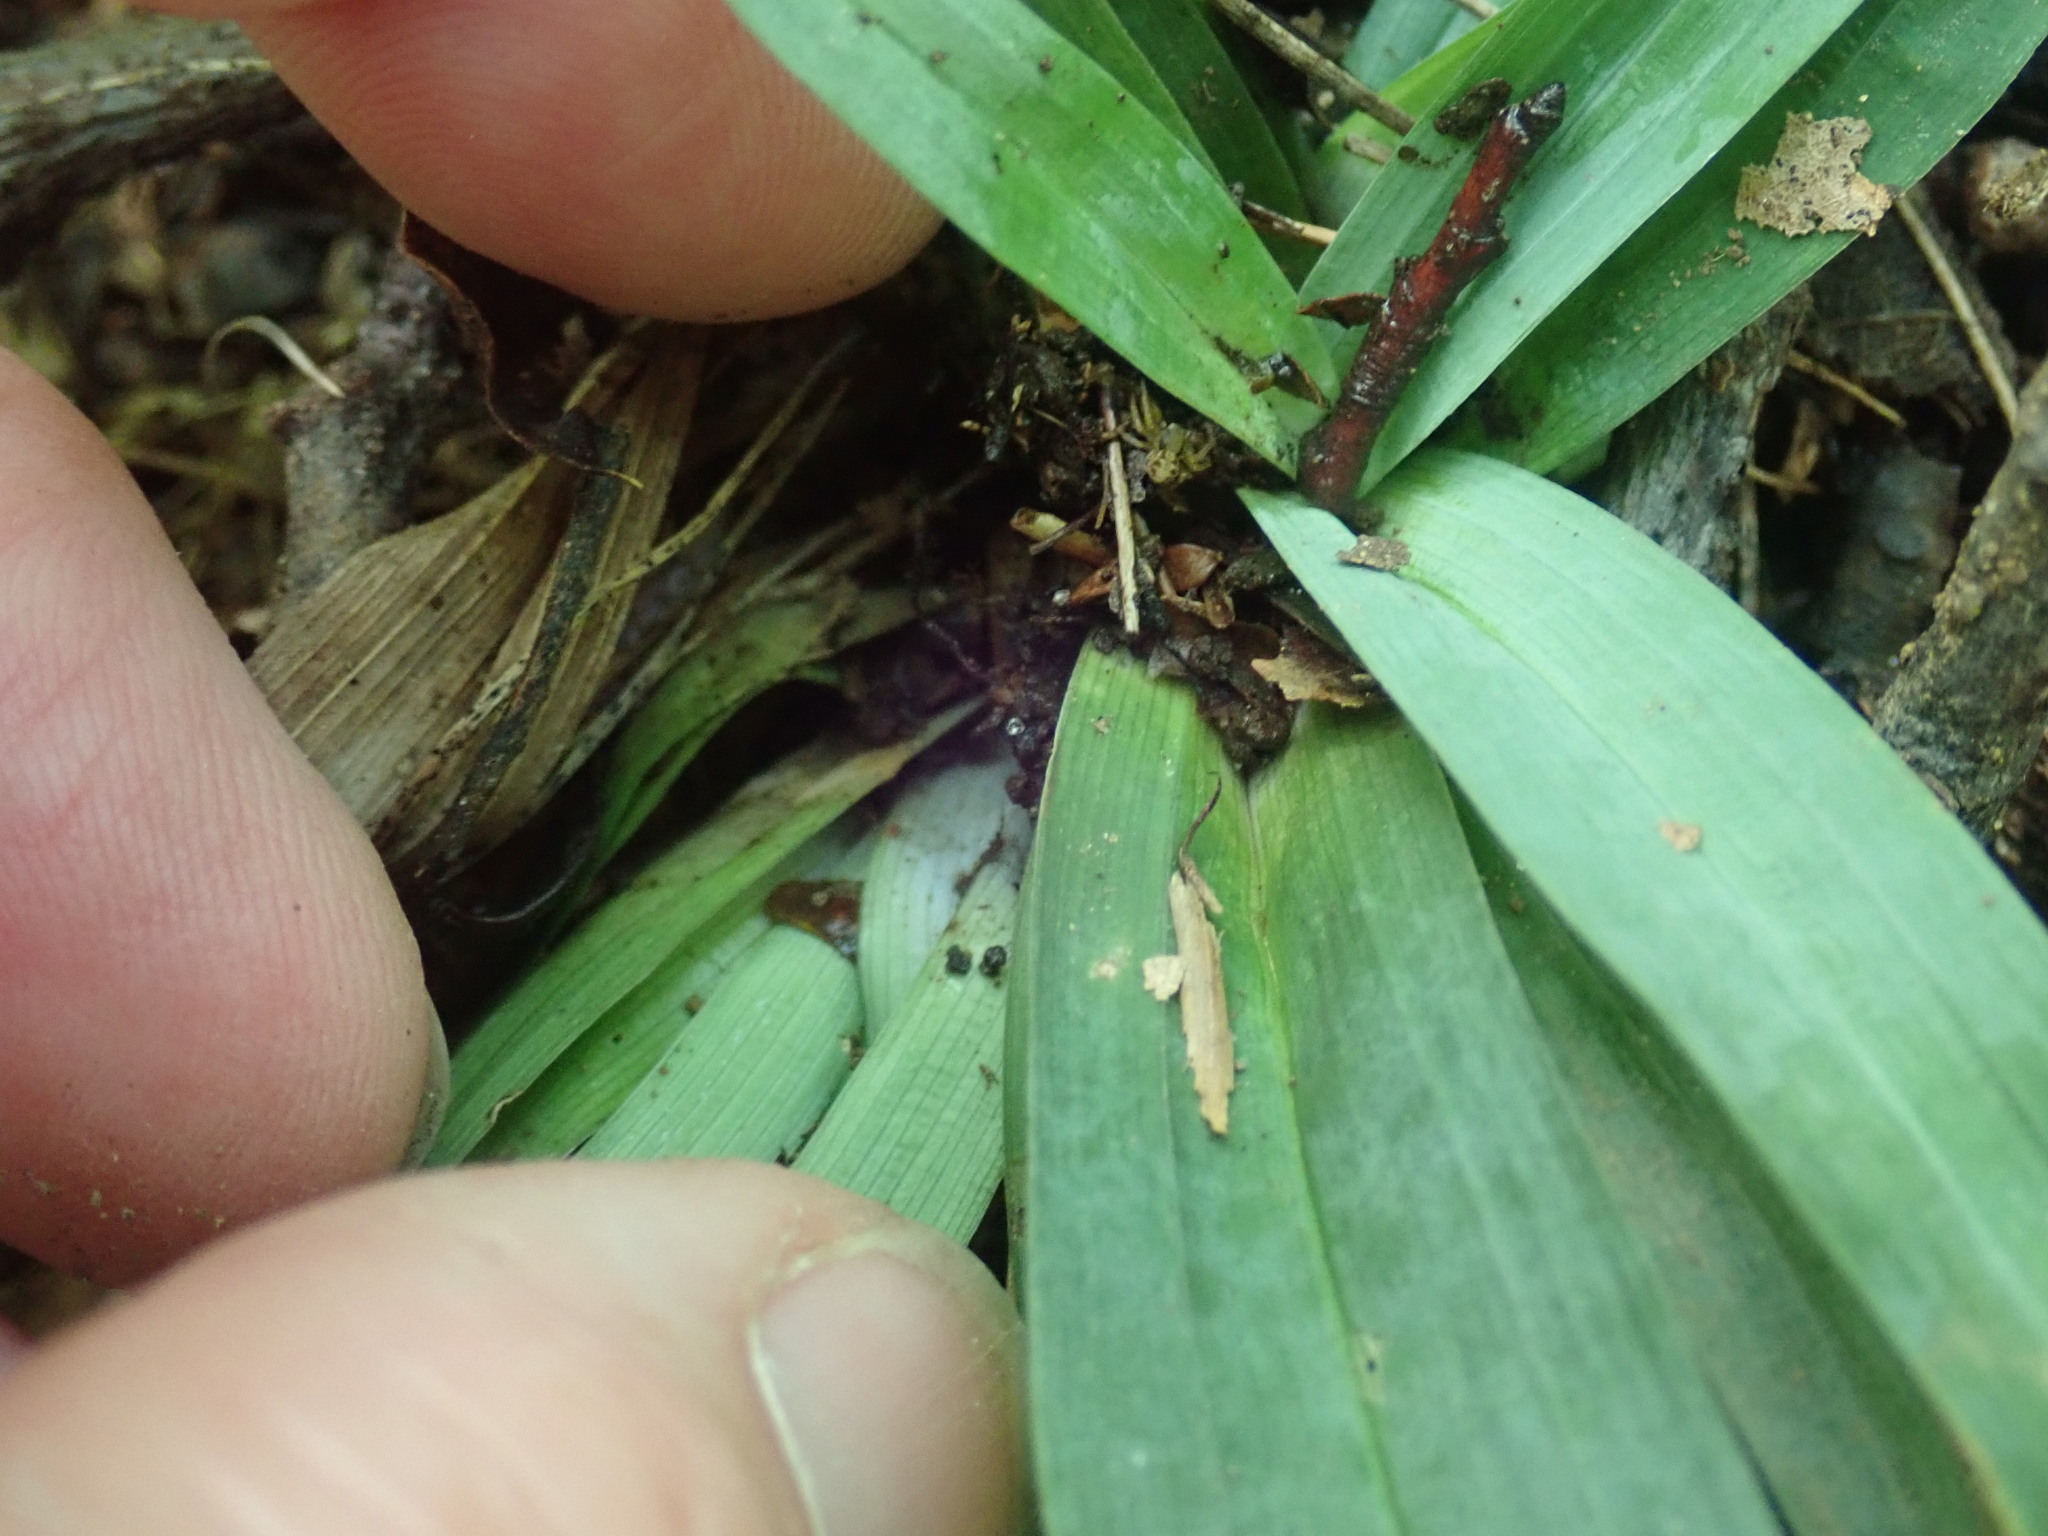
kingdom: Plantae
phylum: Tracheophyta
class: Liliopsida
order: Poales
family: Cyperaceae
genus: Carex
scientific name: Carex platyphylla
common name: Broad-leaved sedge
